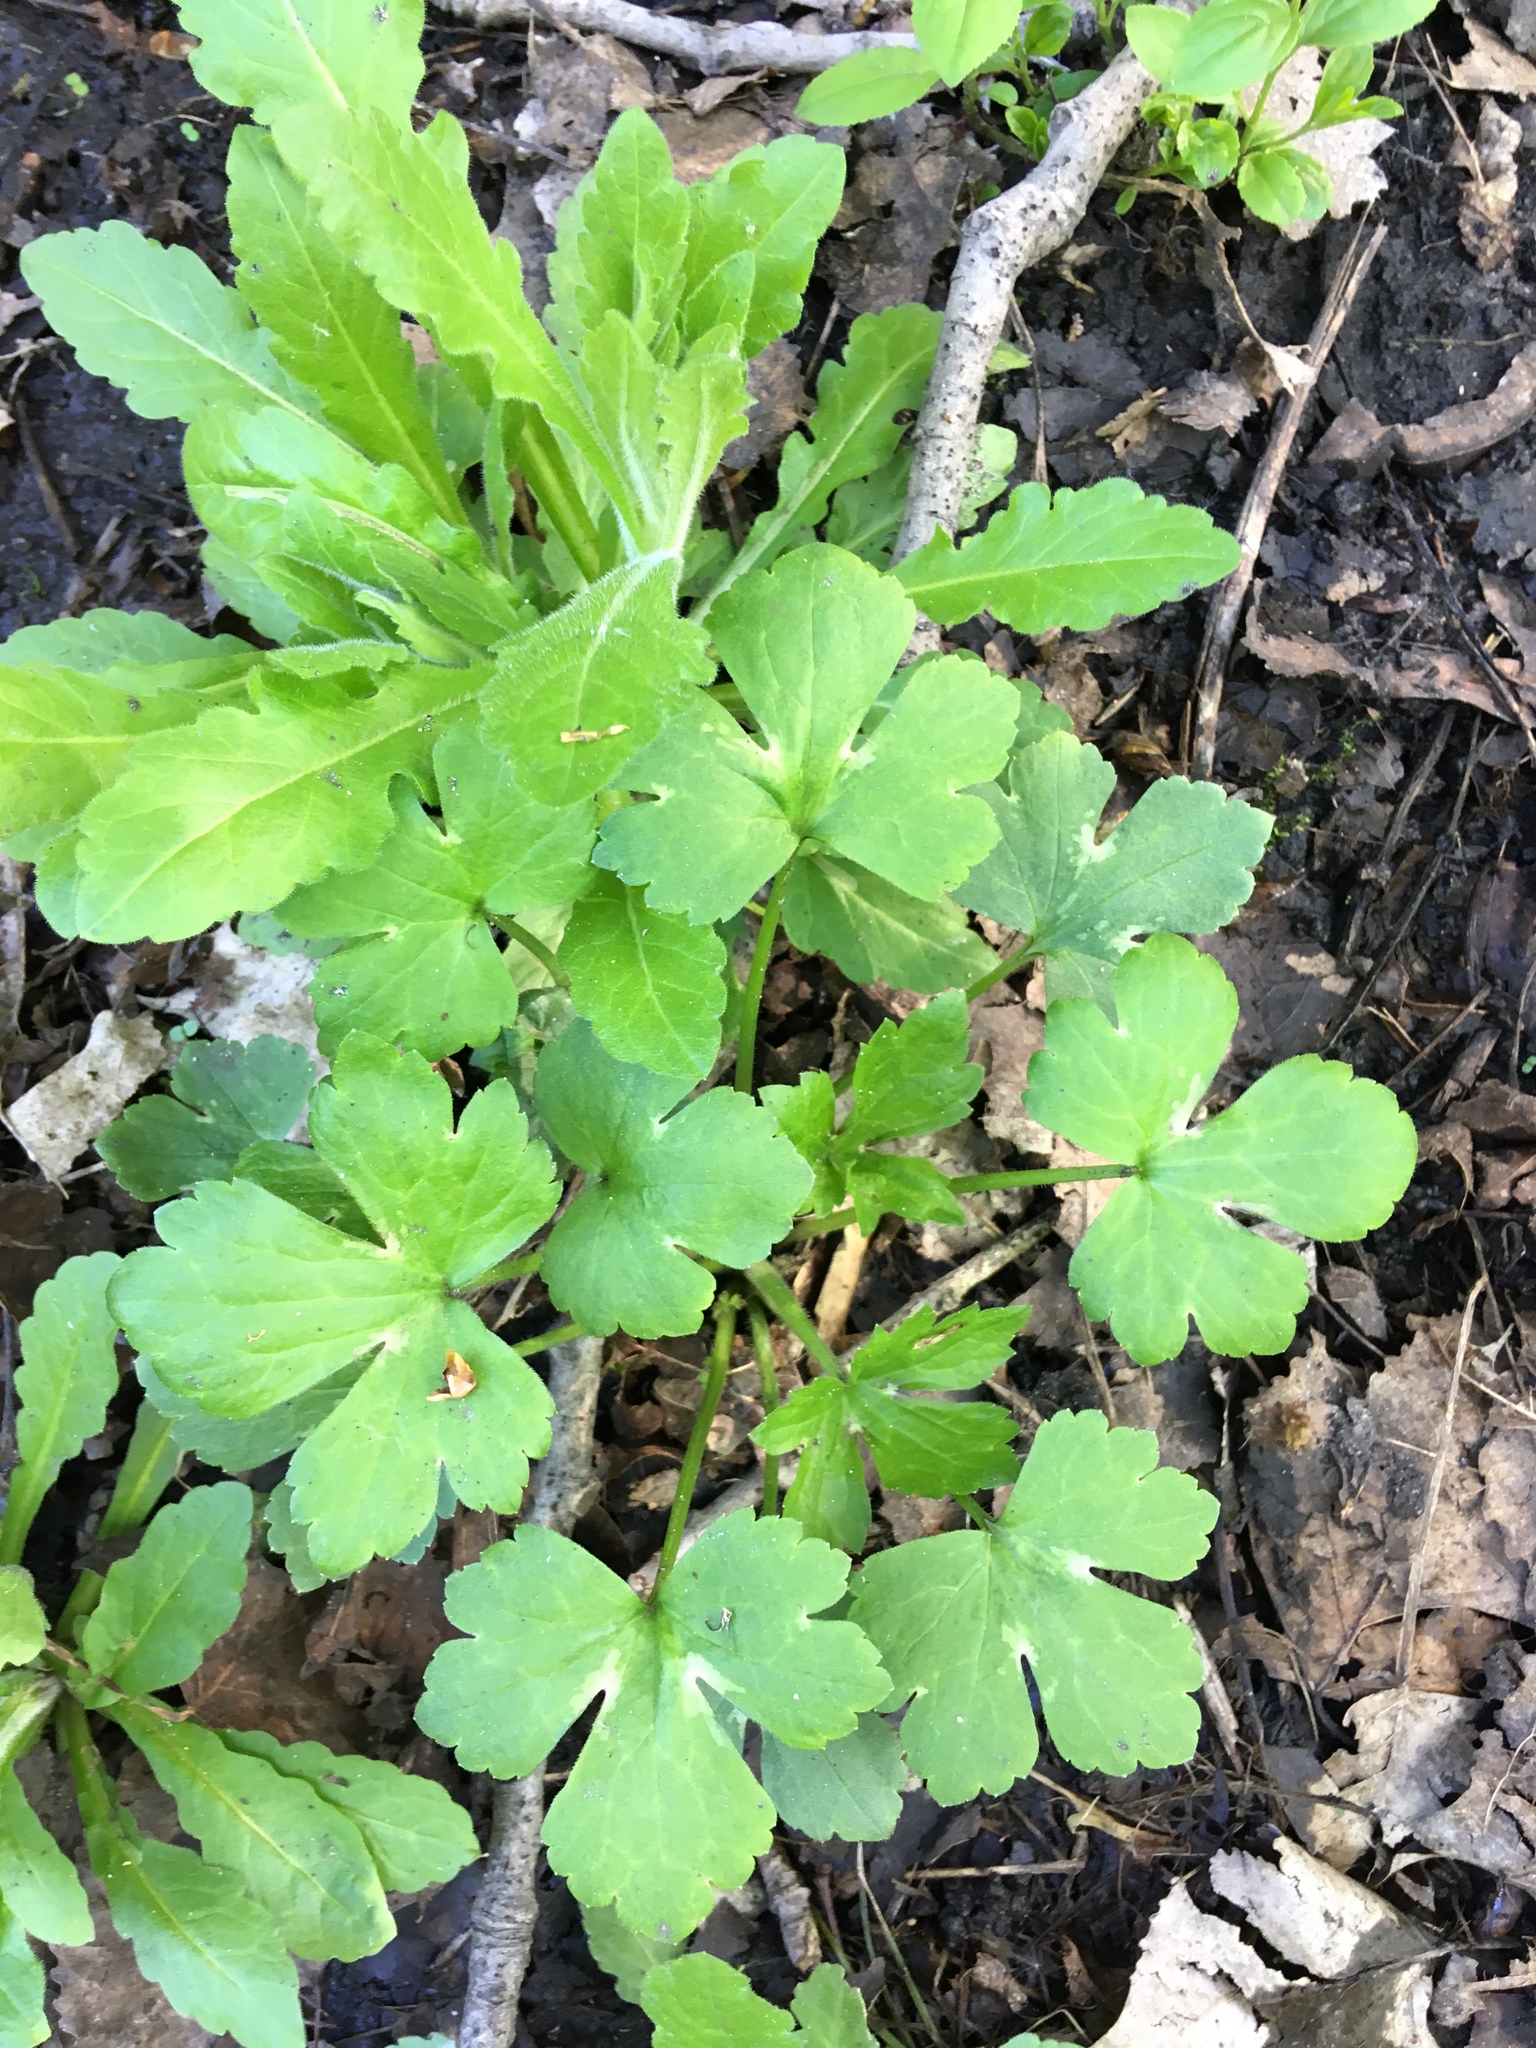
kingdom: Plantae
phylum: Tracheophyta
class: Magnoliopsida
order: Ranunculales
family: Ranunculaceae
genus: Ranunculus
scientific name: Ranunculus recurvatus
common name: Blisterwort
